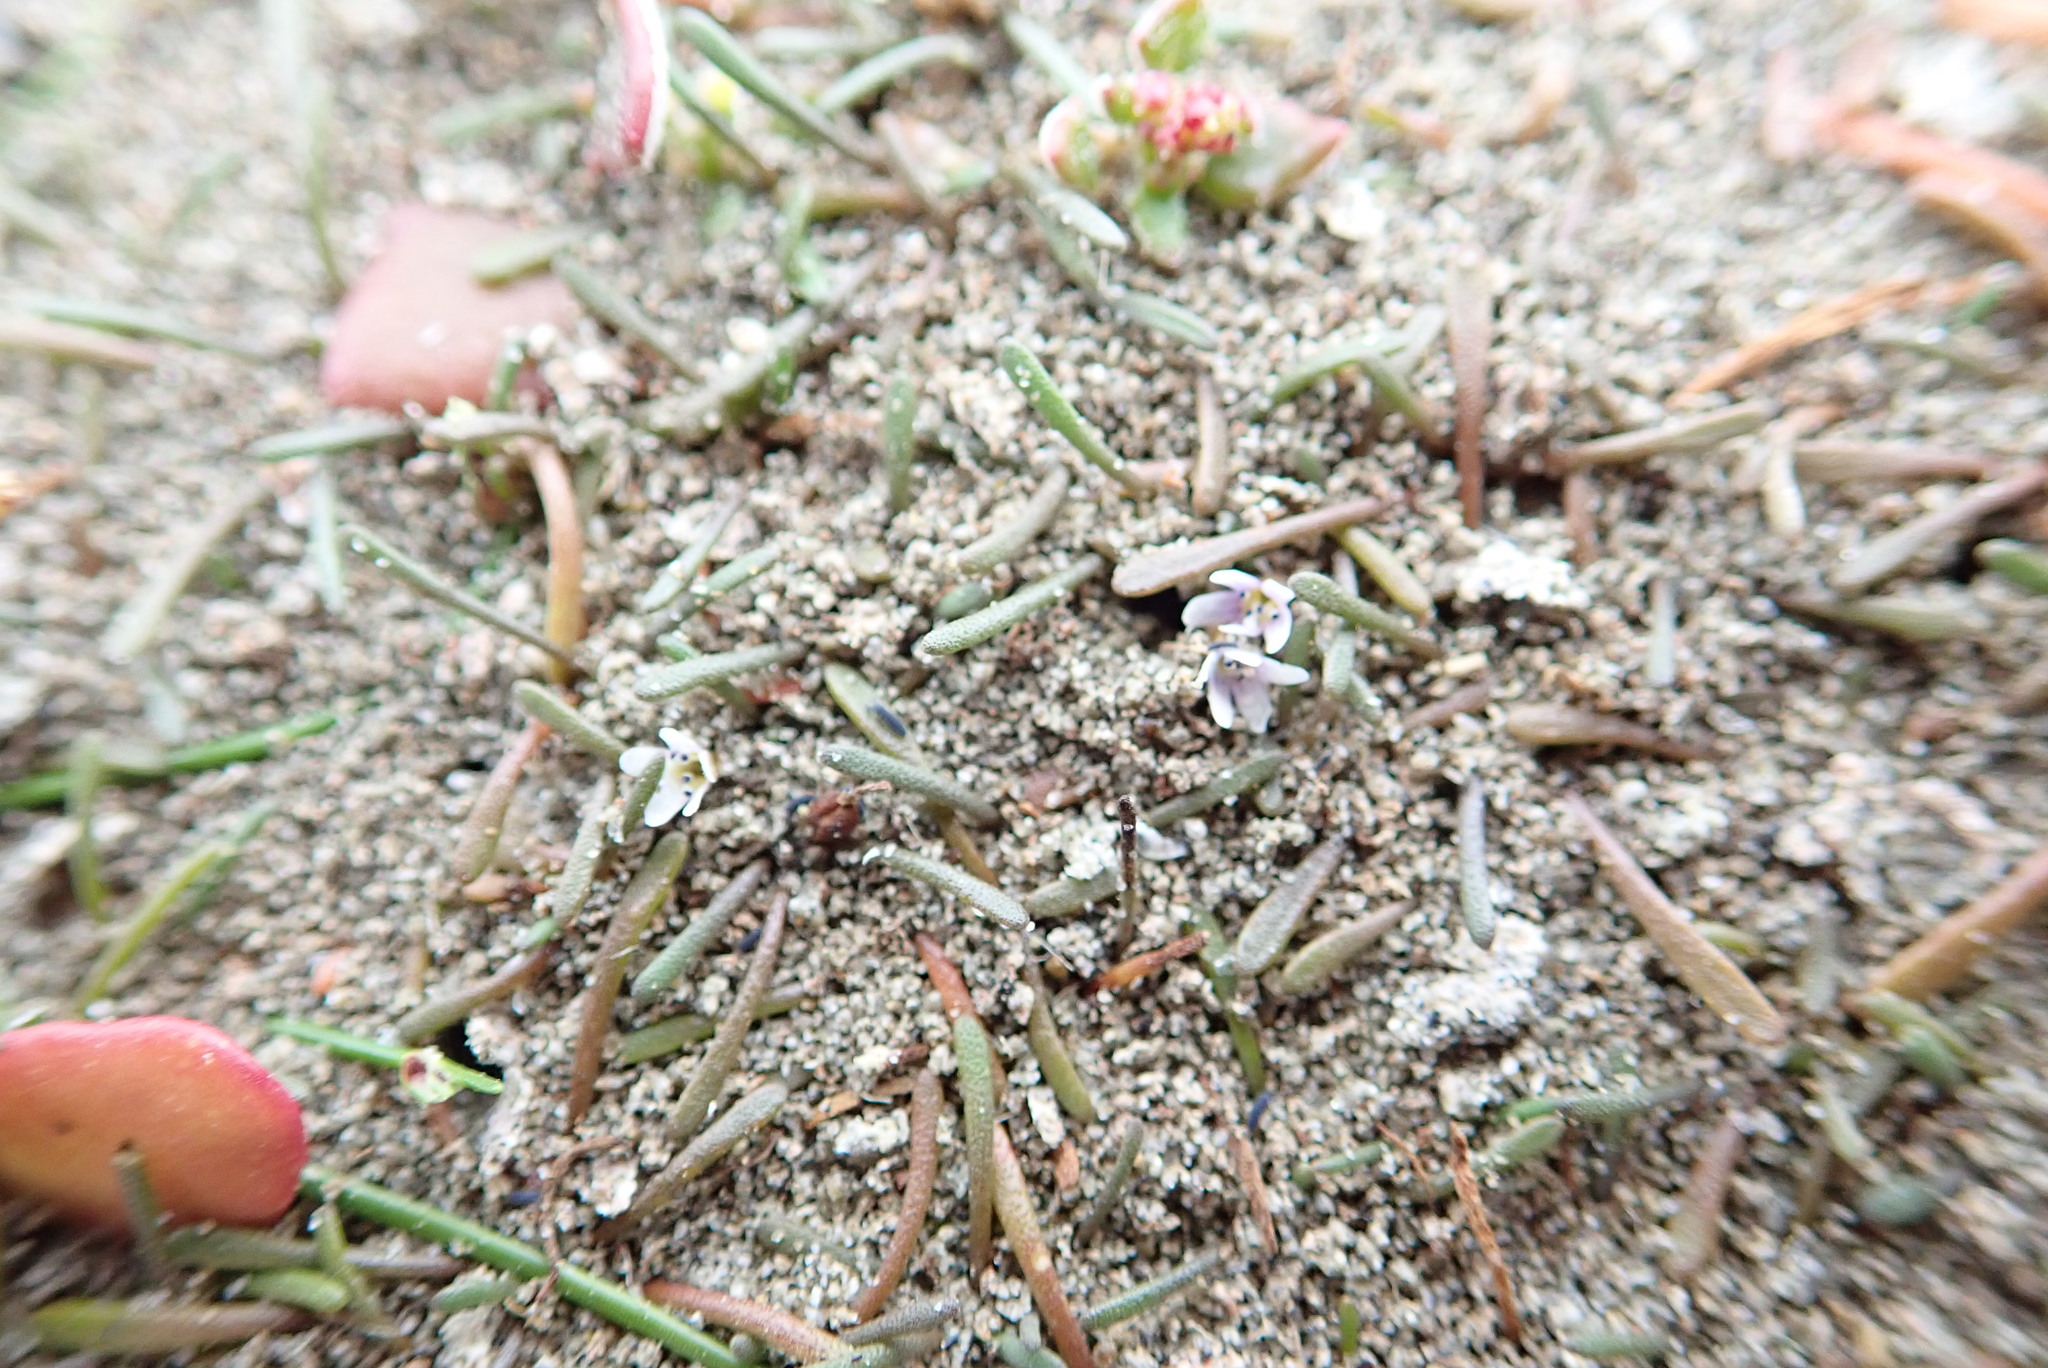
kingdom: Plantae
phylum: Tracheophyta
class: Magnoliopsida
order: Lamiales
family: Scrophulariaceae
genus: Limosella
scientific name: Limosella australis
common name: Welsh mudwort
